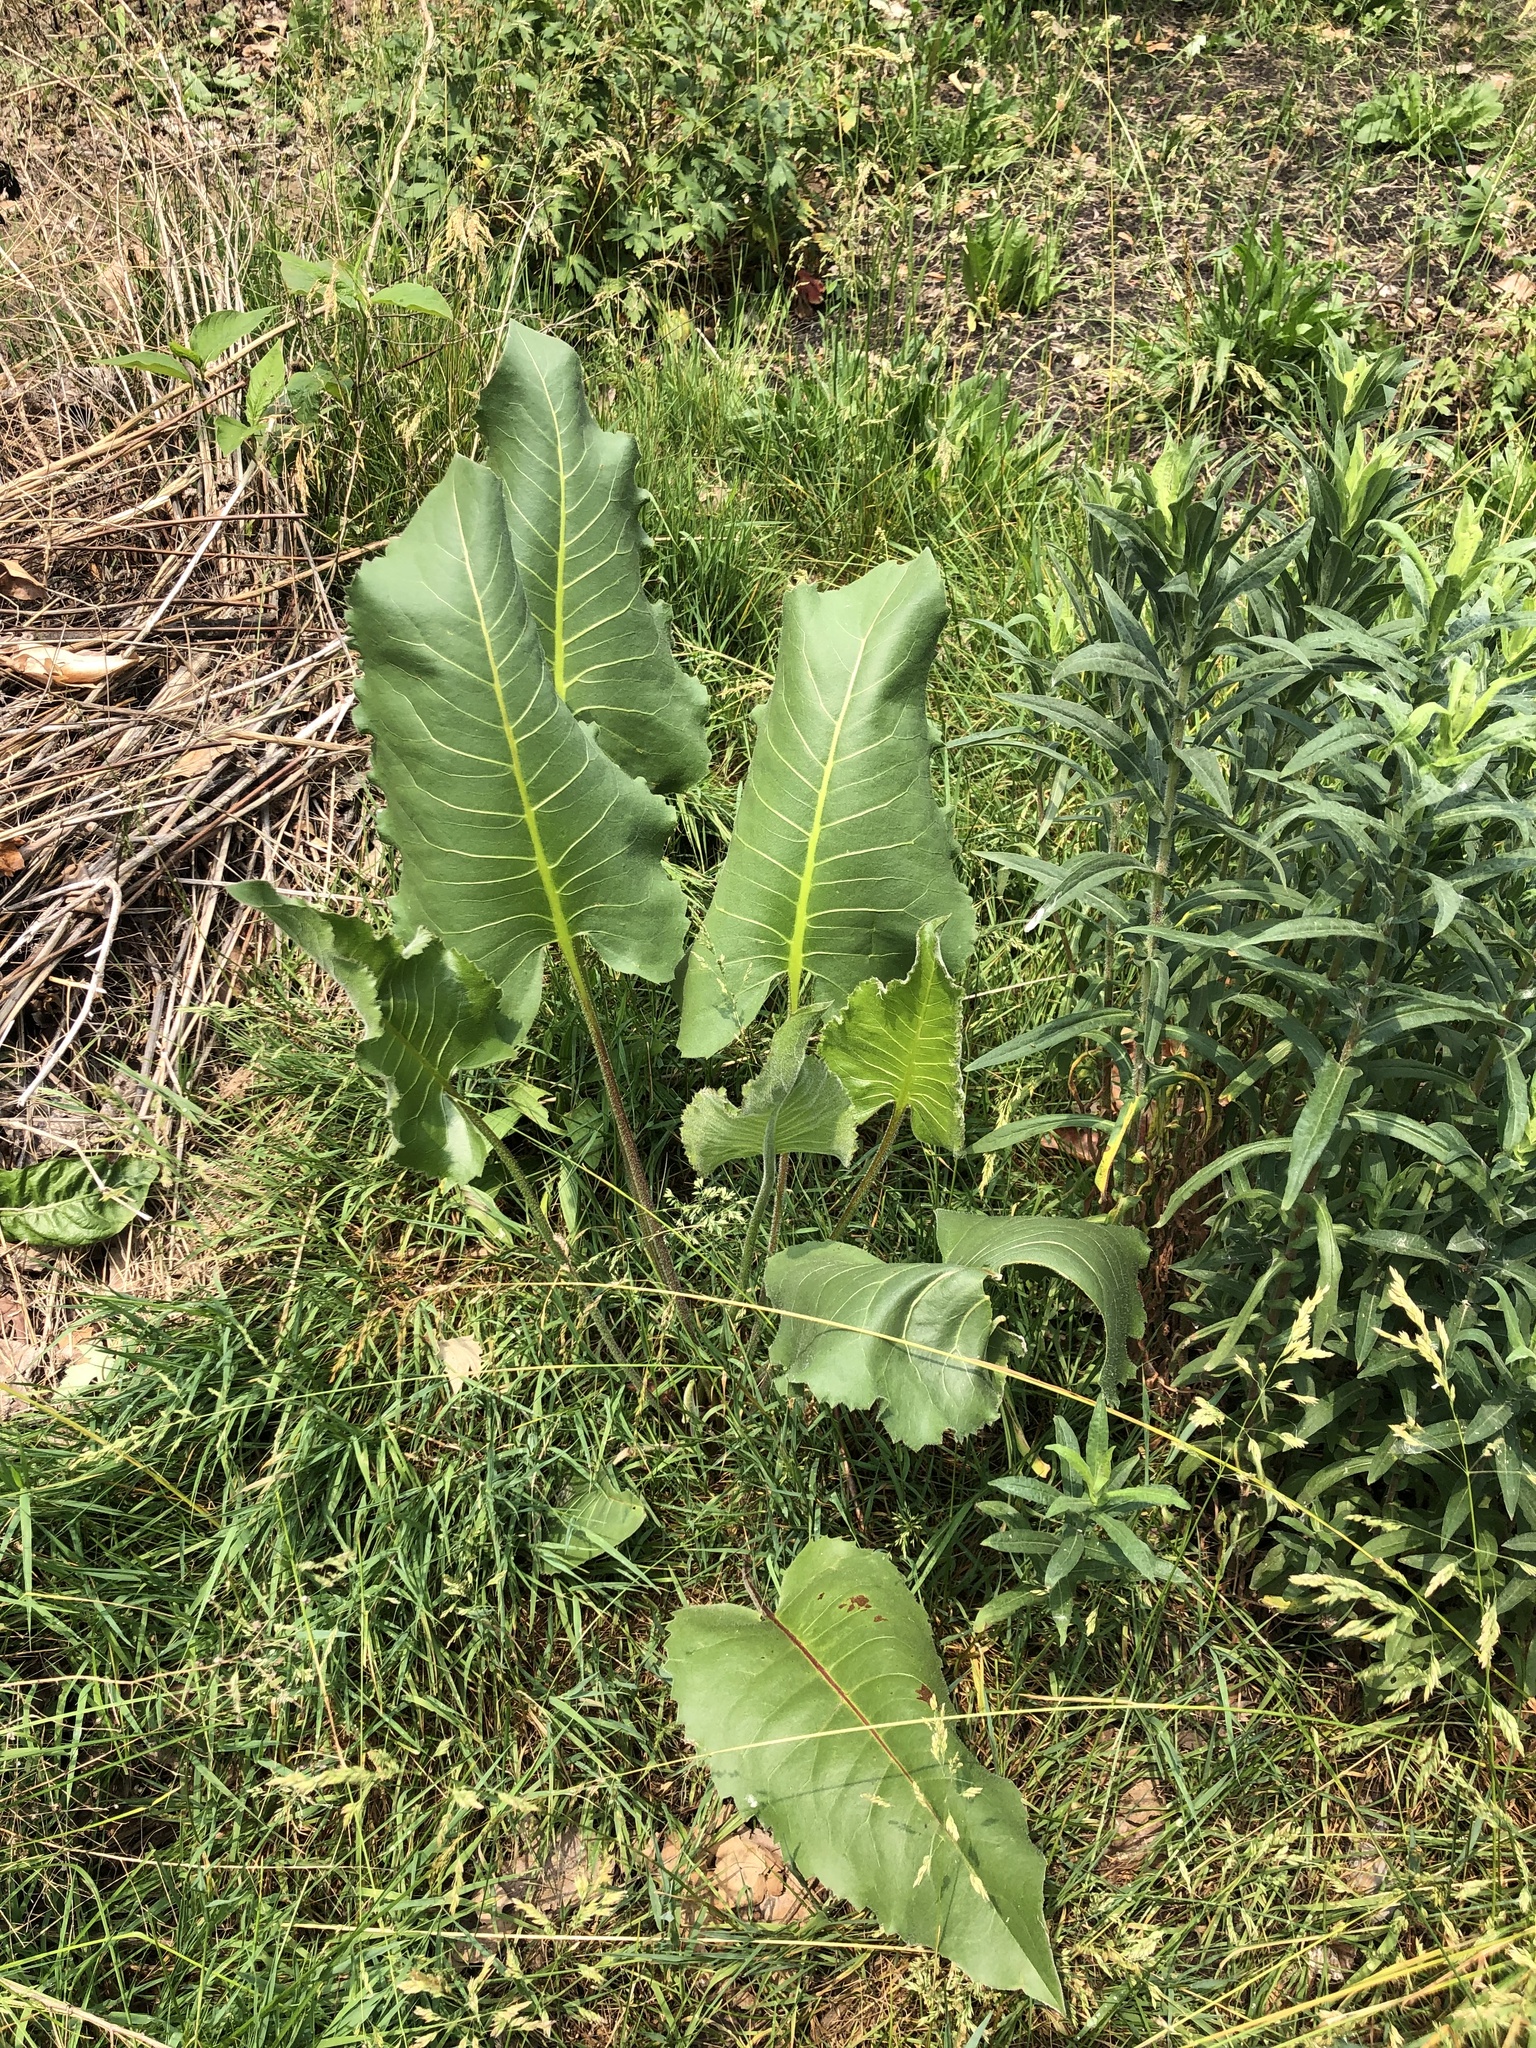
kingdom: Plantae
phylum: Tracheophyta
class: Magnoliopsida
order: Asterales
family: Asteraceae
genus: Silphium
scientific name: Silphium terebinthinaceum
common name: Basal-leaf rosinweed
